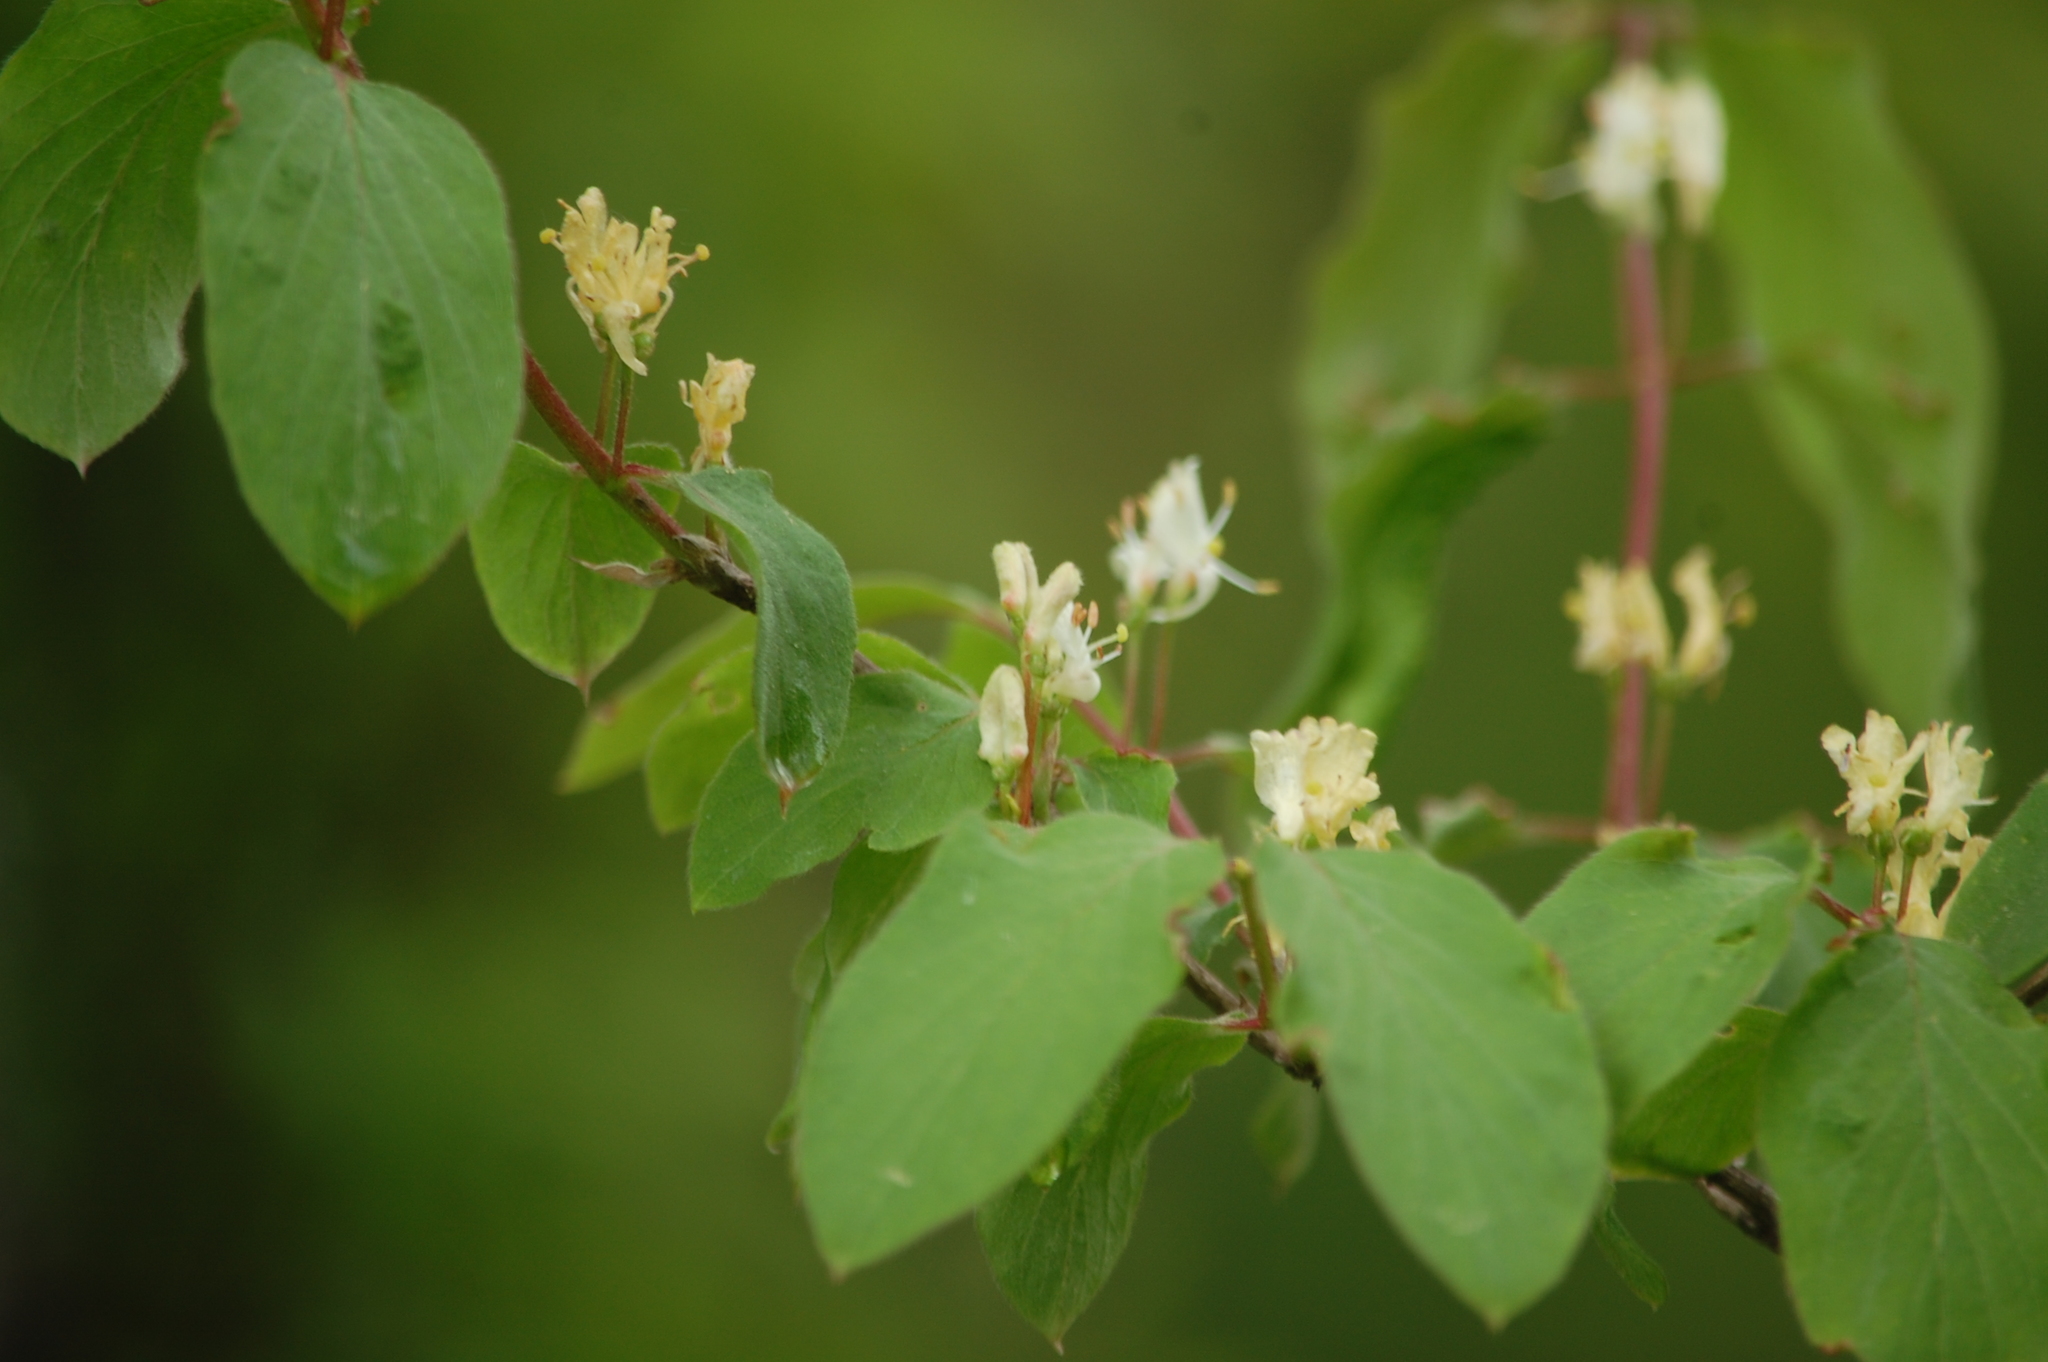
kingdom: Plantae
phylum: Tracheophyta
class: Magnoliopsida
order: Dipsacales
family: Caprifoliaceae
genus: Lonicera
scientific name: Lonicera xylosteum
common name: Fly honeysuckle
